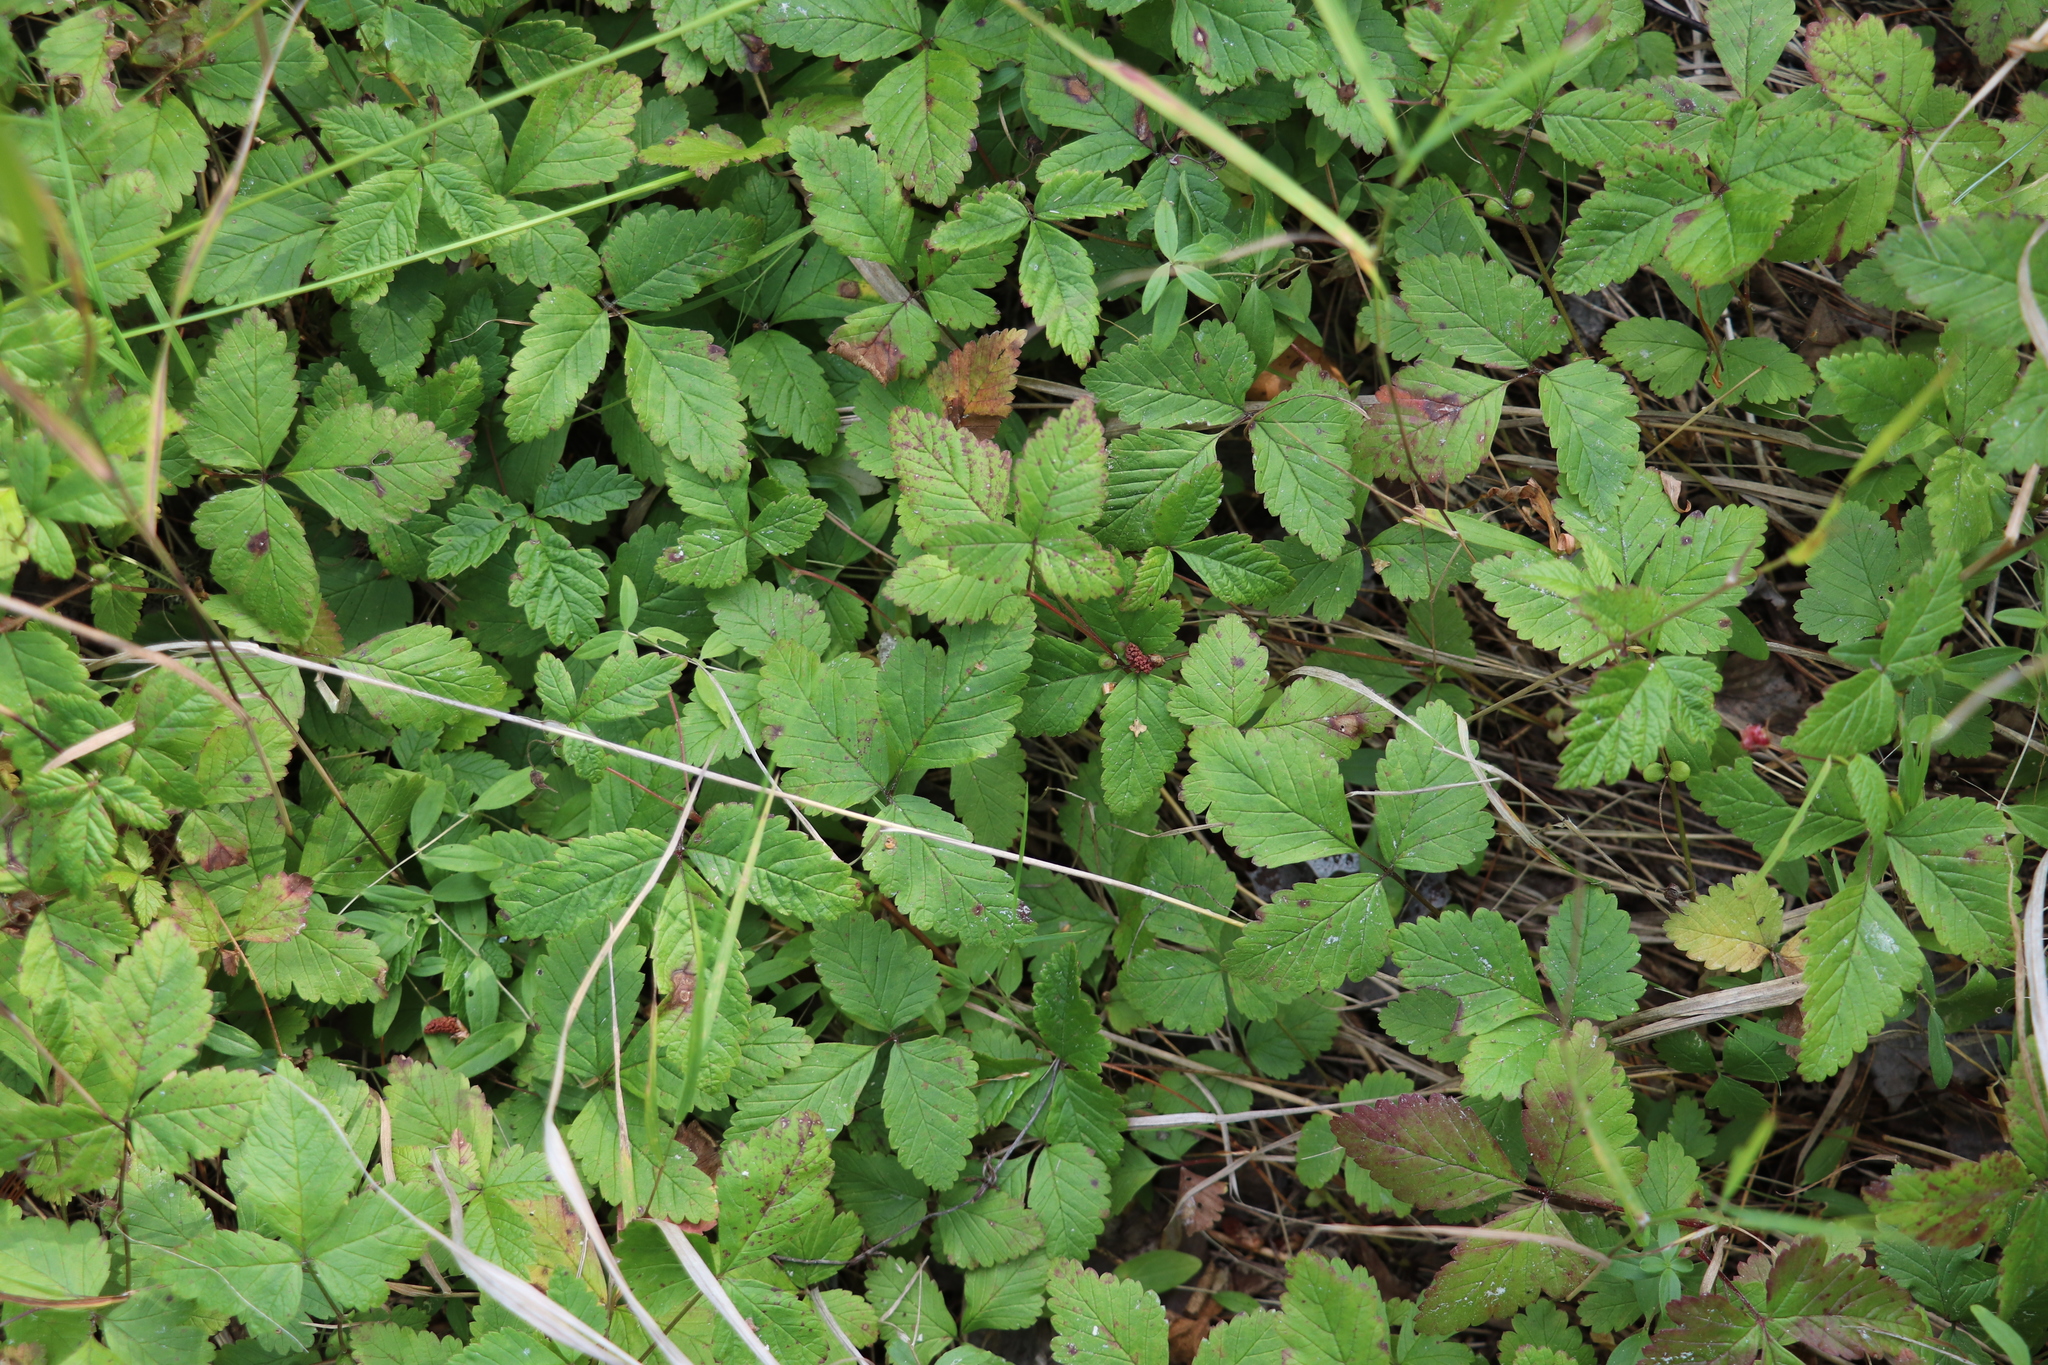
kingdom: Plantae
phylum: Tracheophyta
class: Magnoliopsida
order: Rosales
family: Rosaceae
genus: Rubus
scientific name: Rubus arcticus
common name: Arctic bramble
